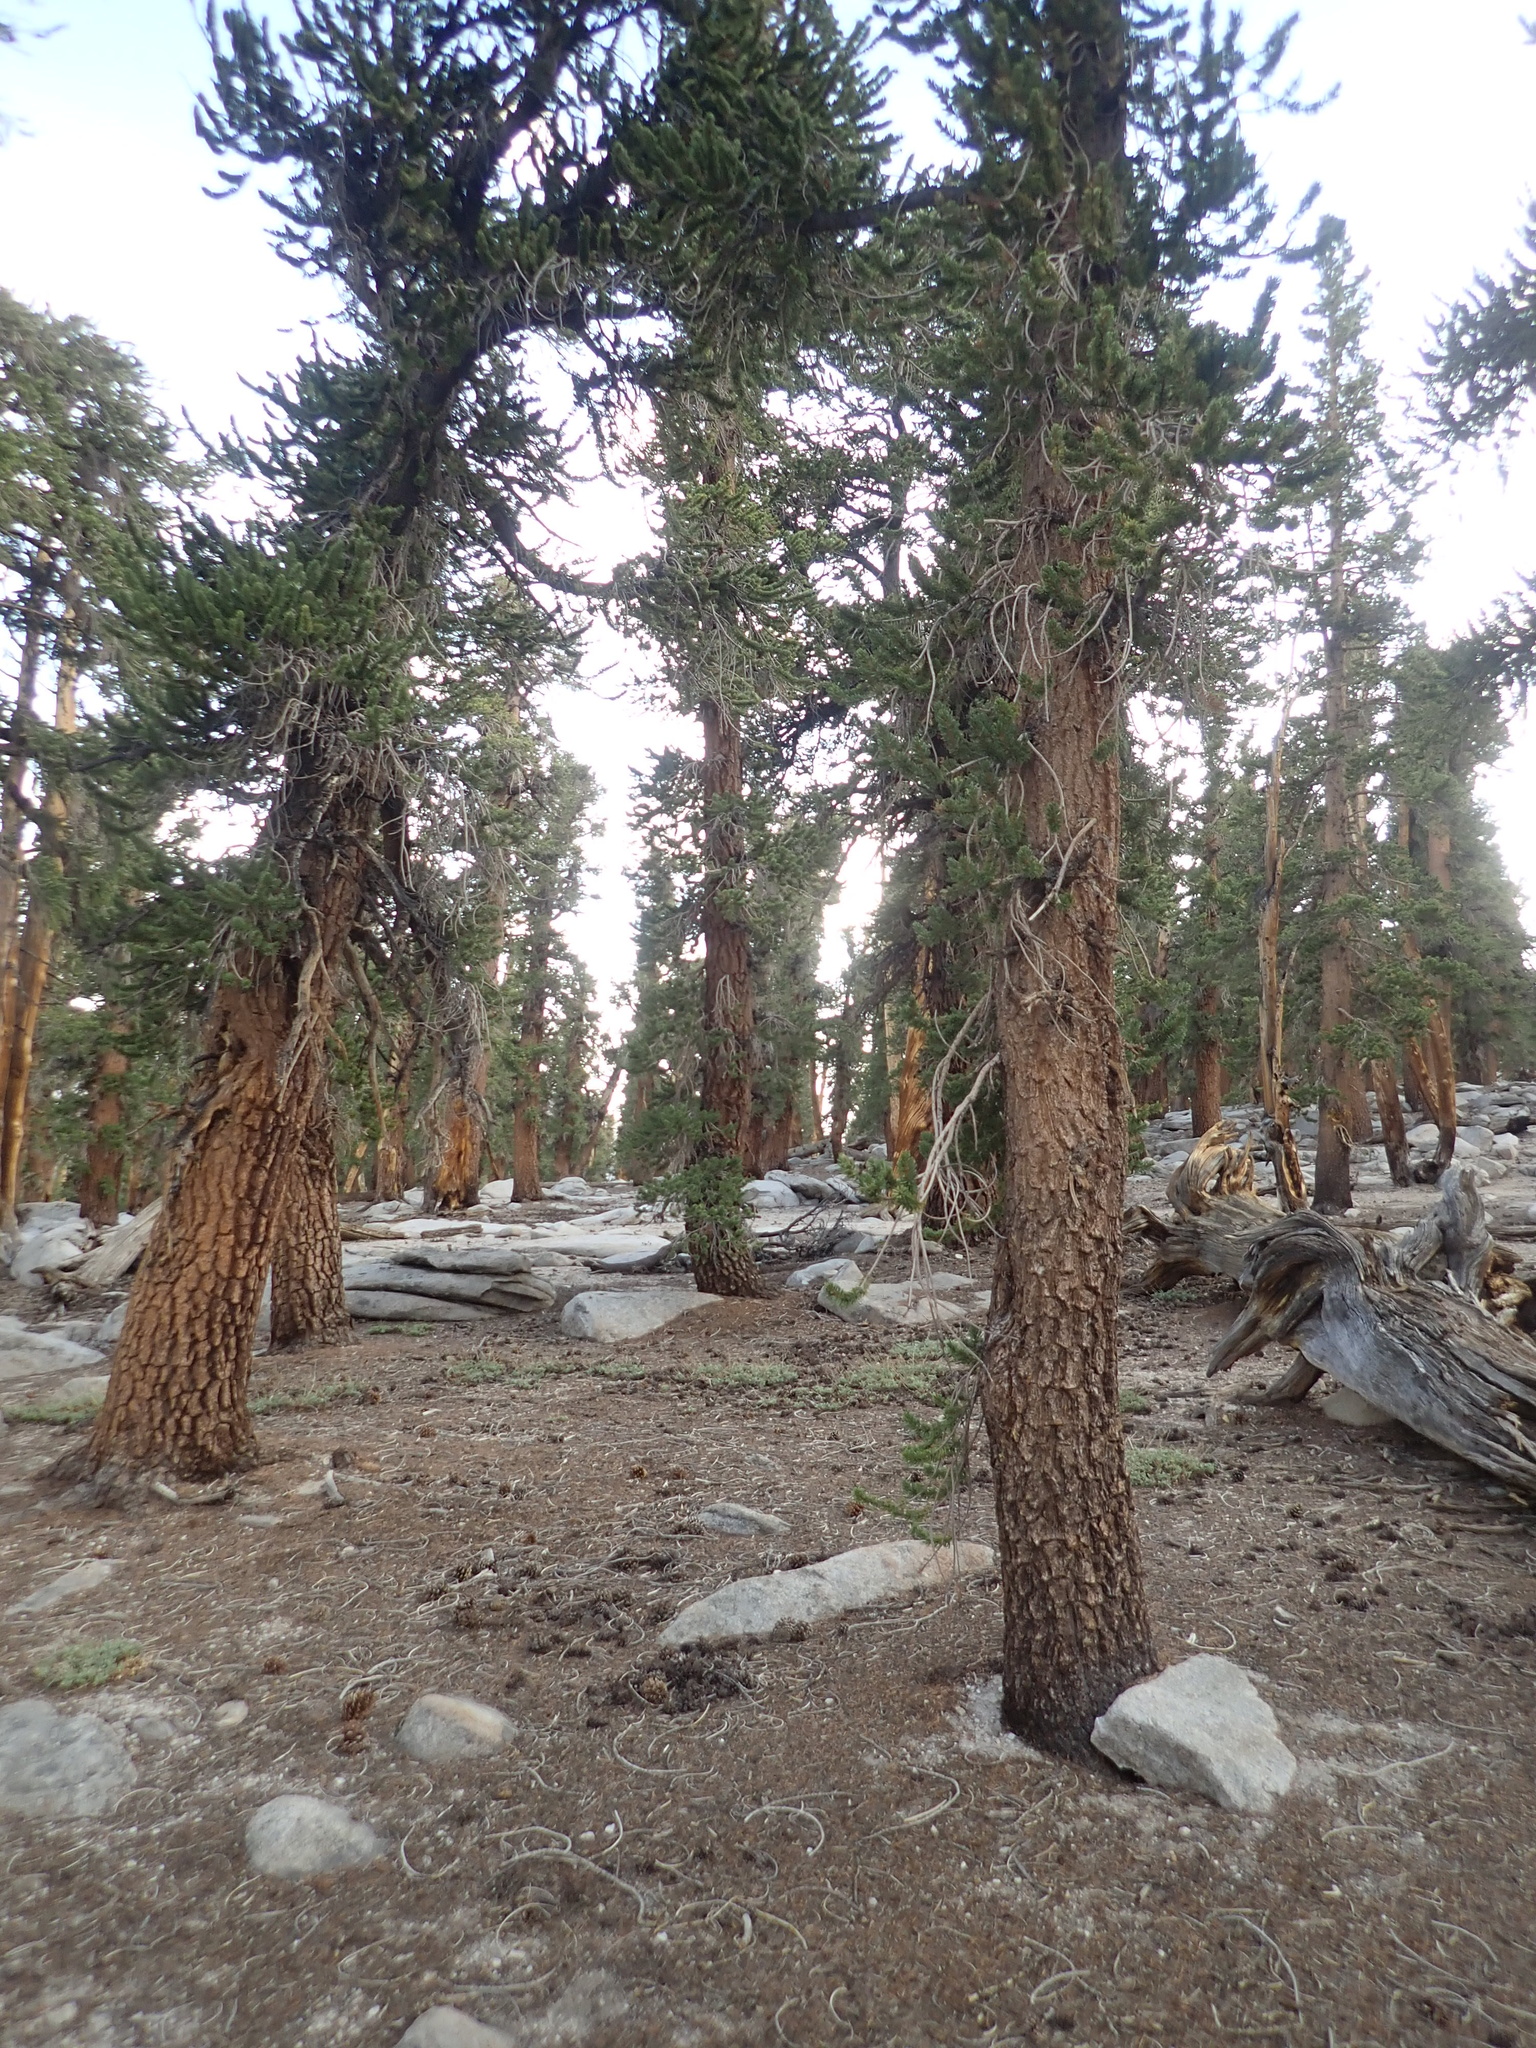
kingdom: Plantae
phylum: Tracheophyta
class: Pinopsida
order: Pinales
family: Pinaceae
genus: Pinus
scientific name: Pinus balfouriana
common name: Foxtail pine
